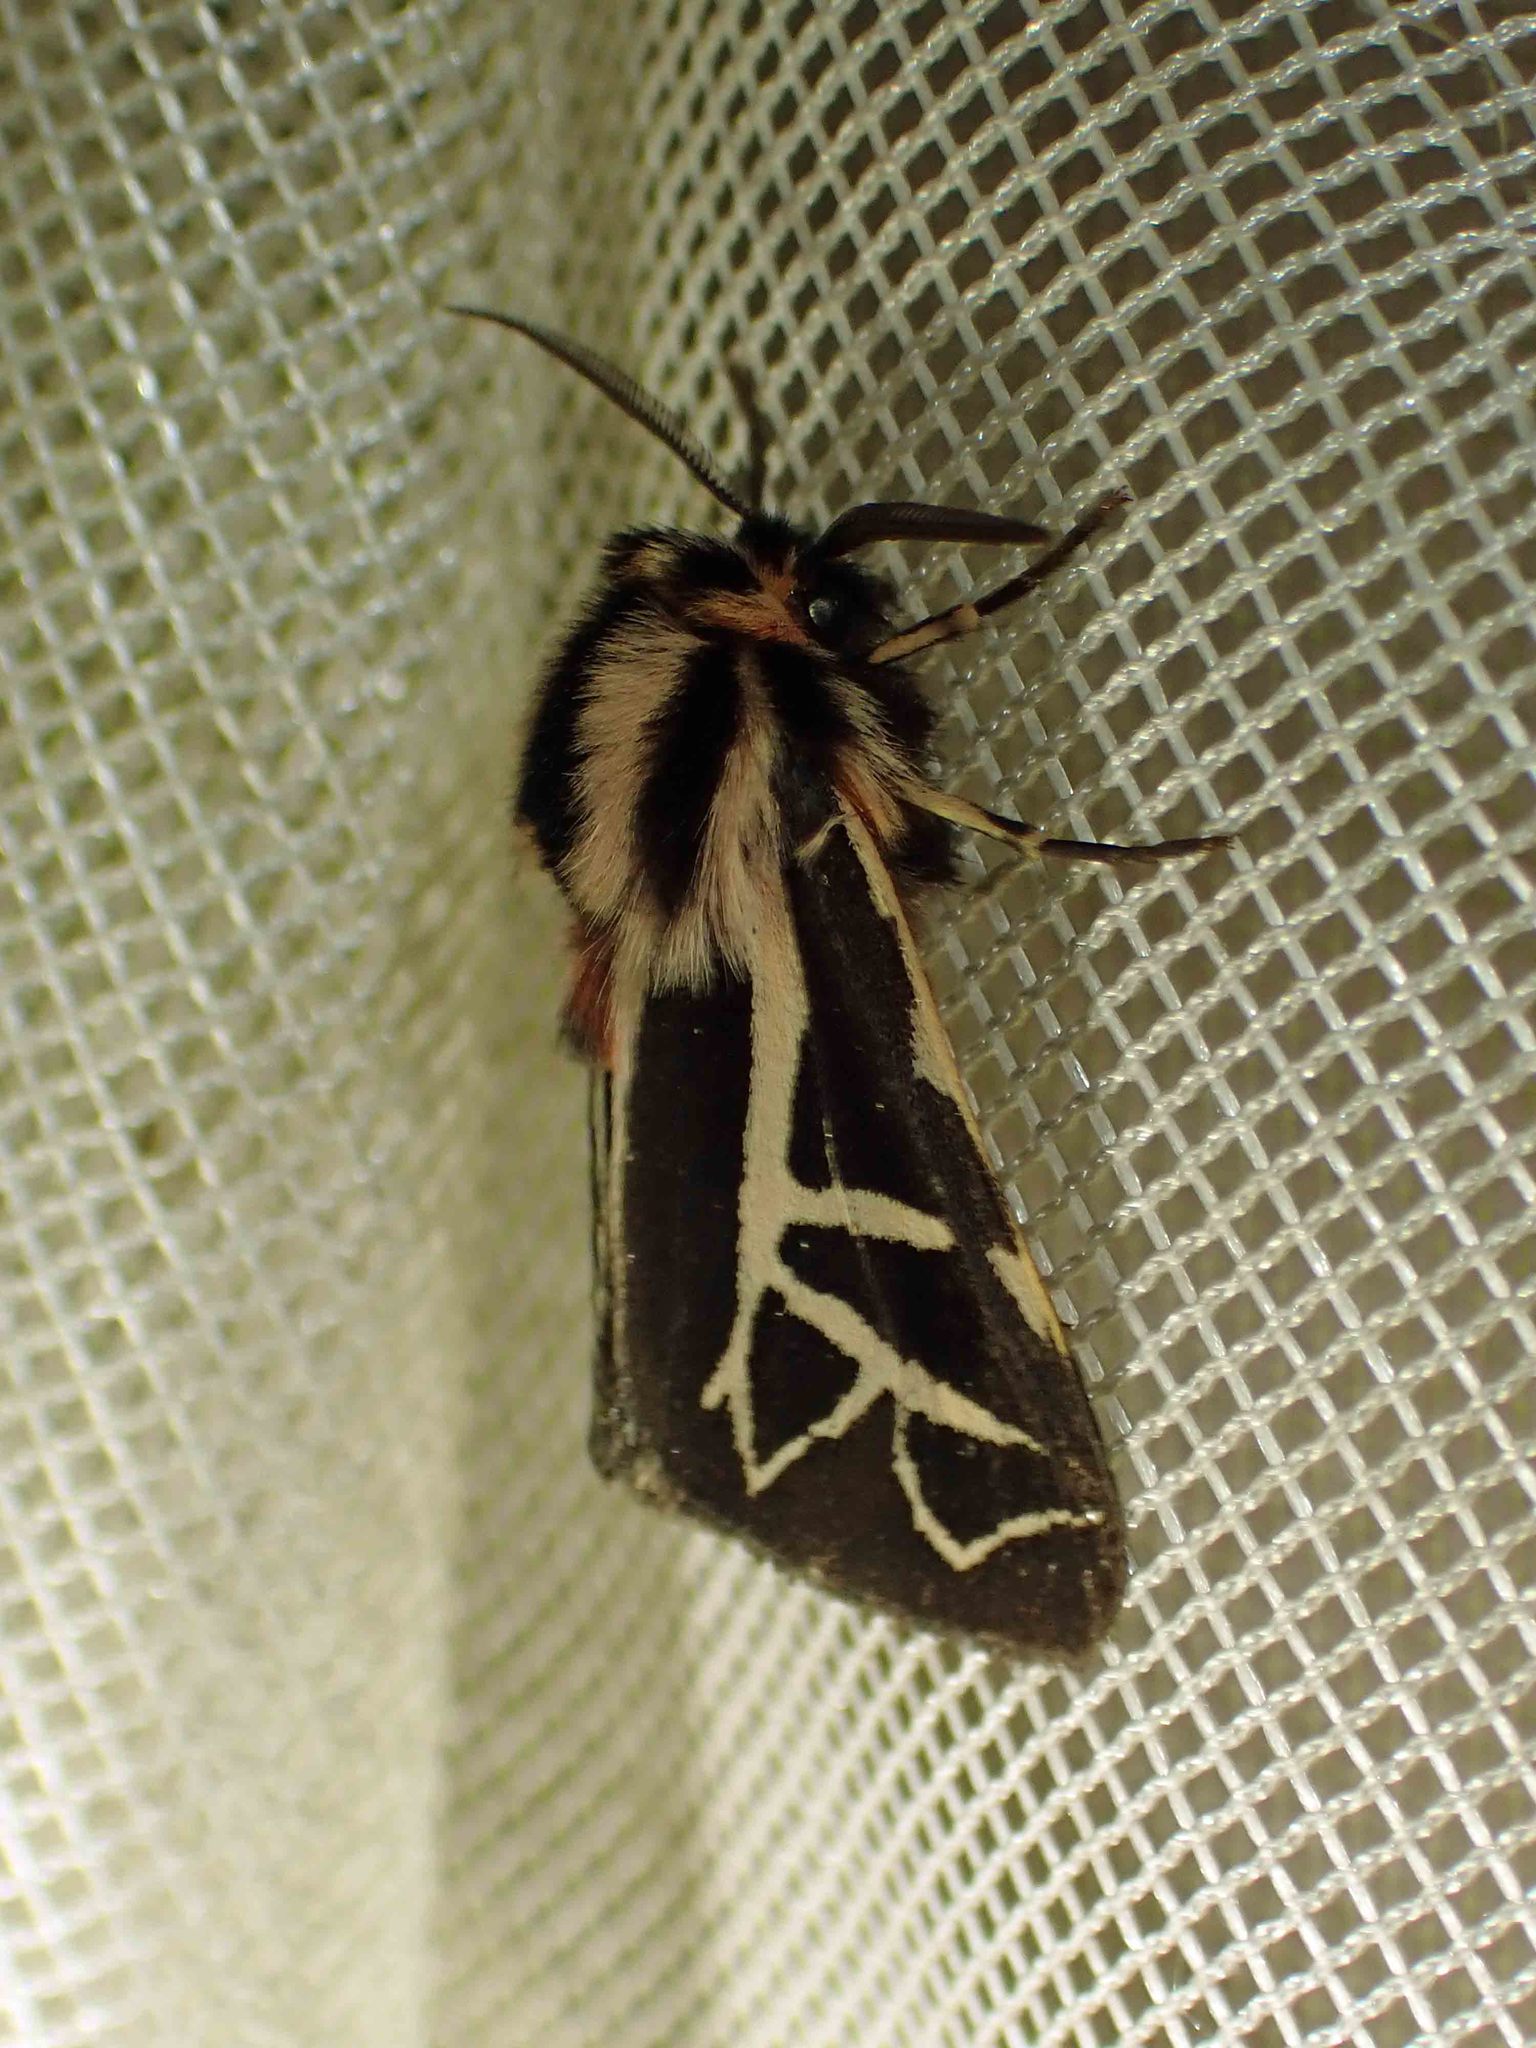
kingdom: Animalia
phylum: Arthropoda
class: Insecta
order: Lepidoptera
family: Erebidae
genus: Apantesis
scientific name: Apantesis
